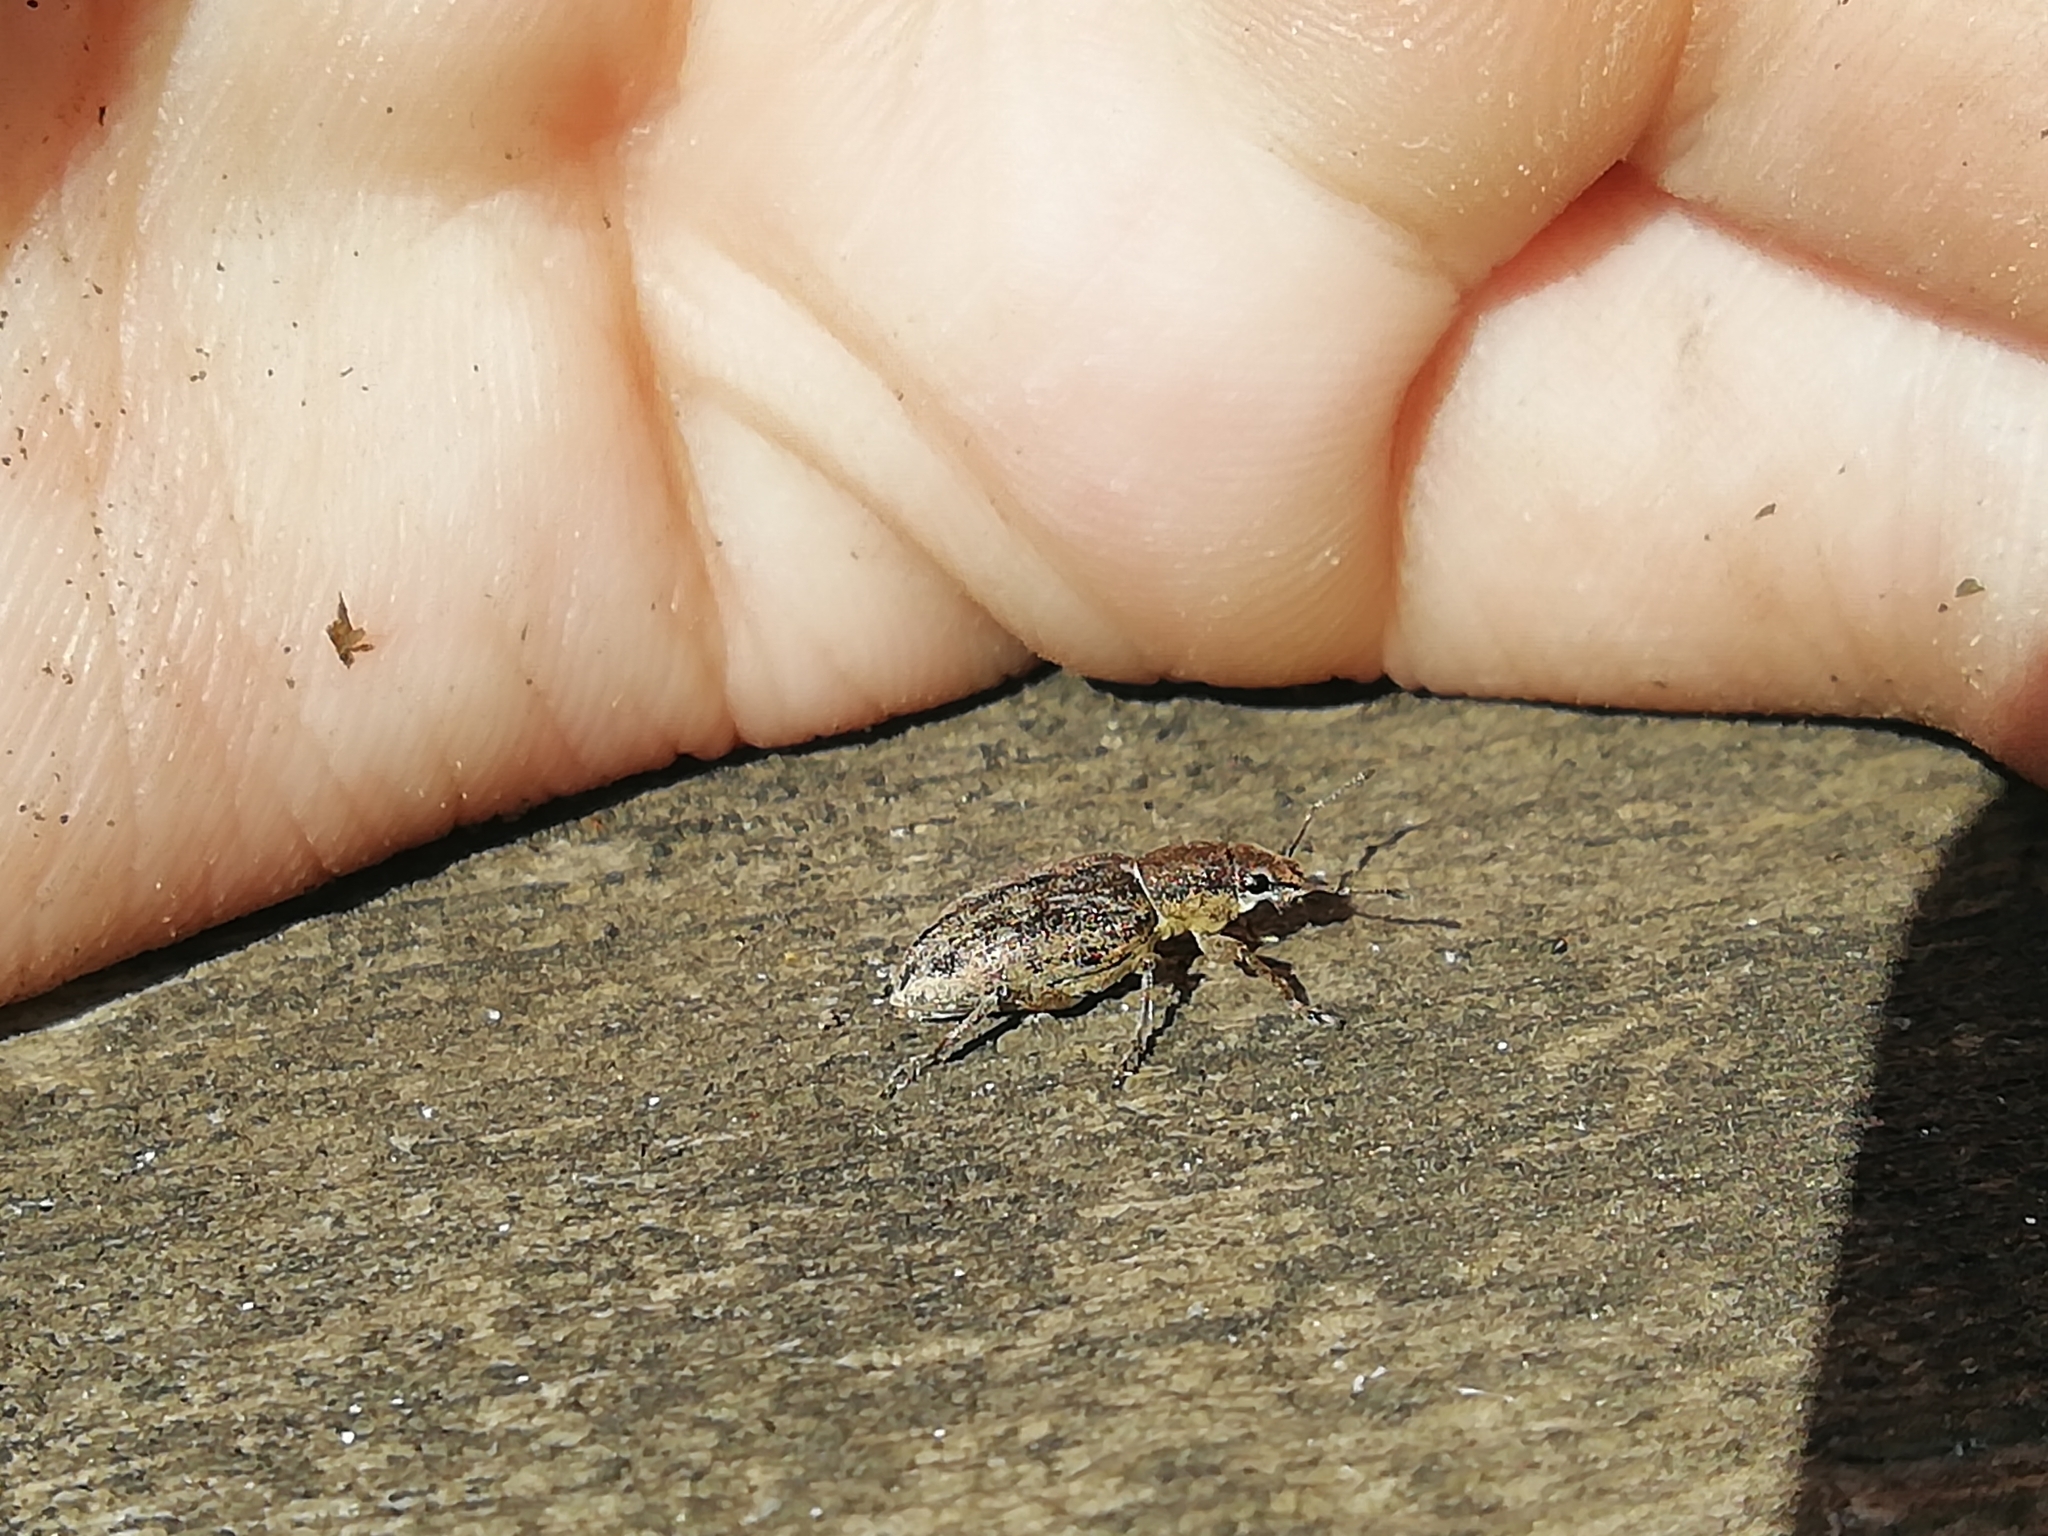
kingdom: Animalia
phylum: Arthropoda
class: Insecta
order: Coleoptera
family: Curculionidae
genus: Tanymecus
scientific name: Tanymecus palliatus
